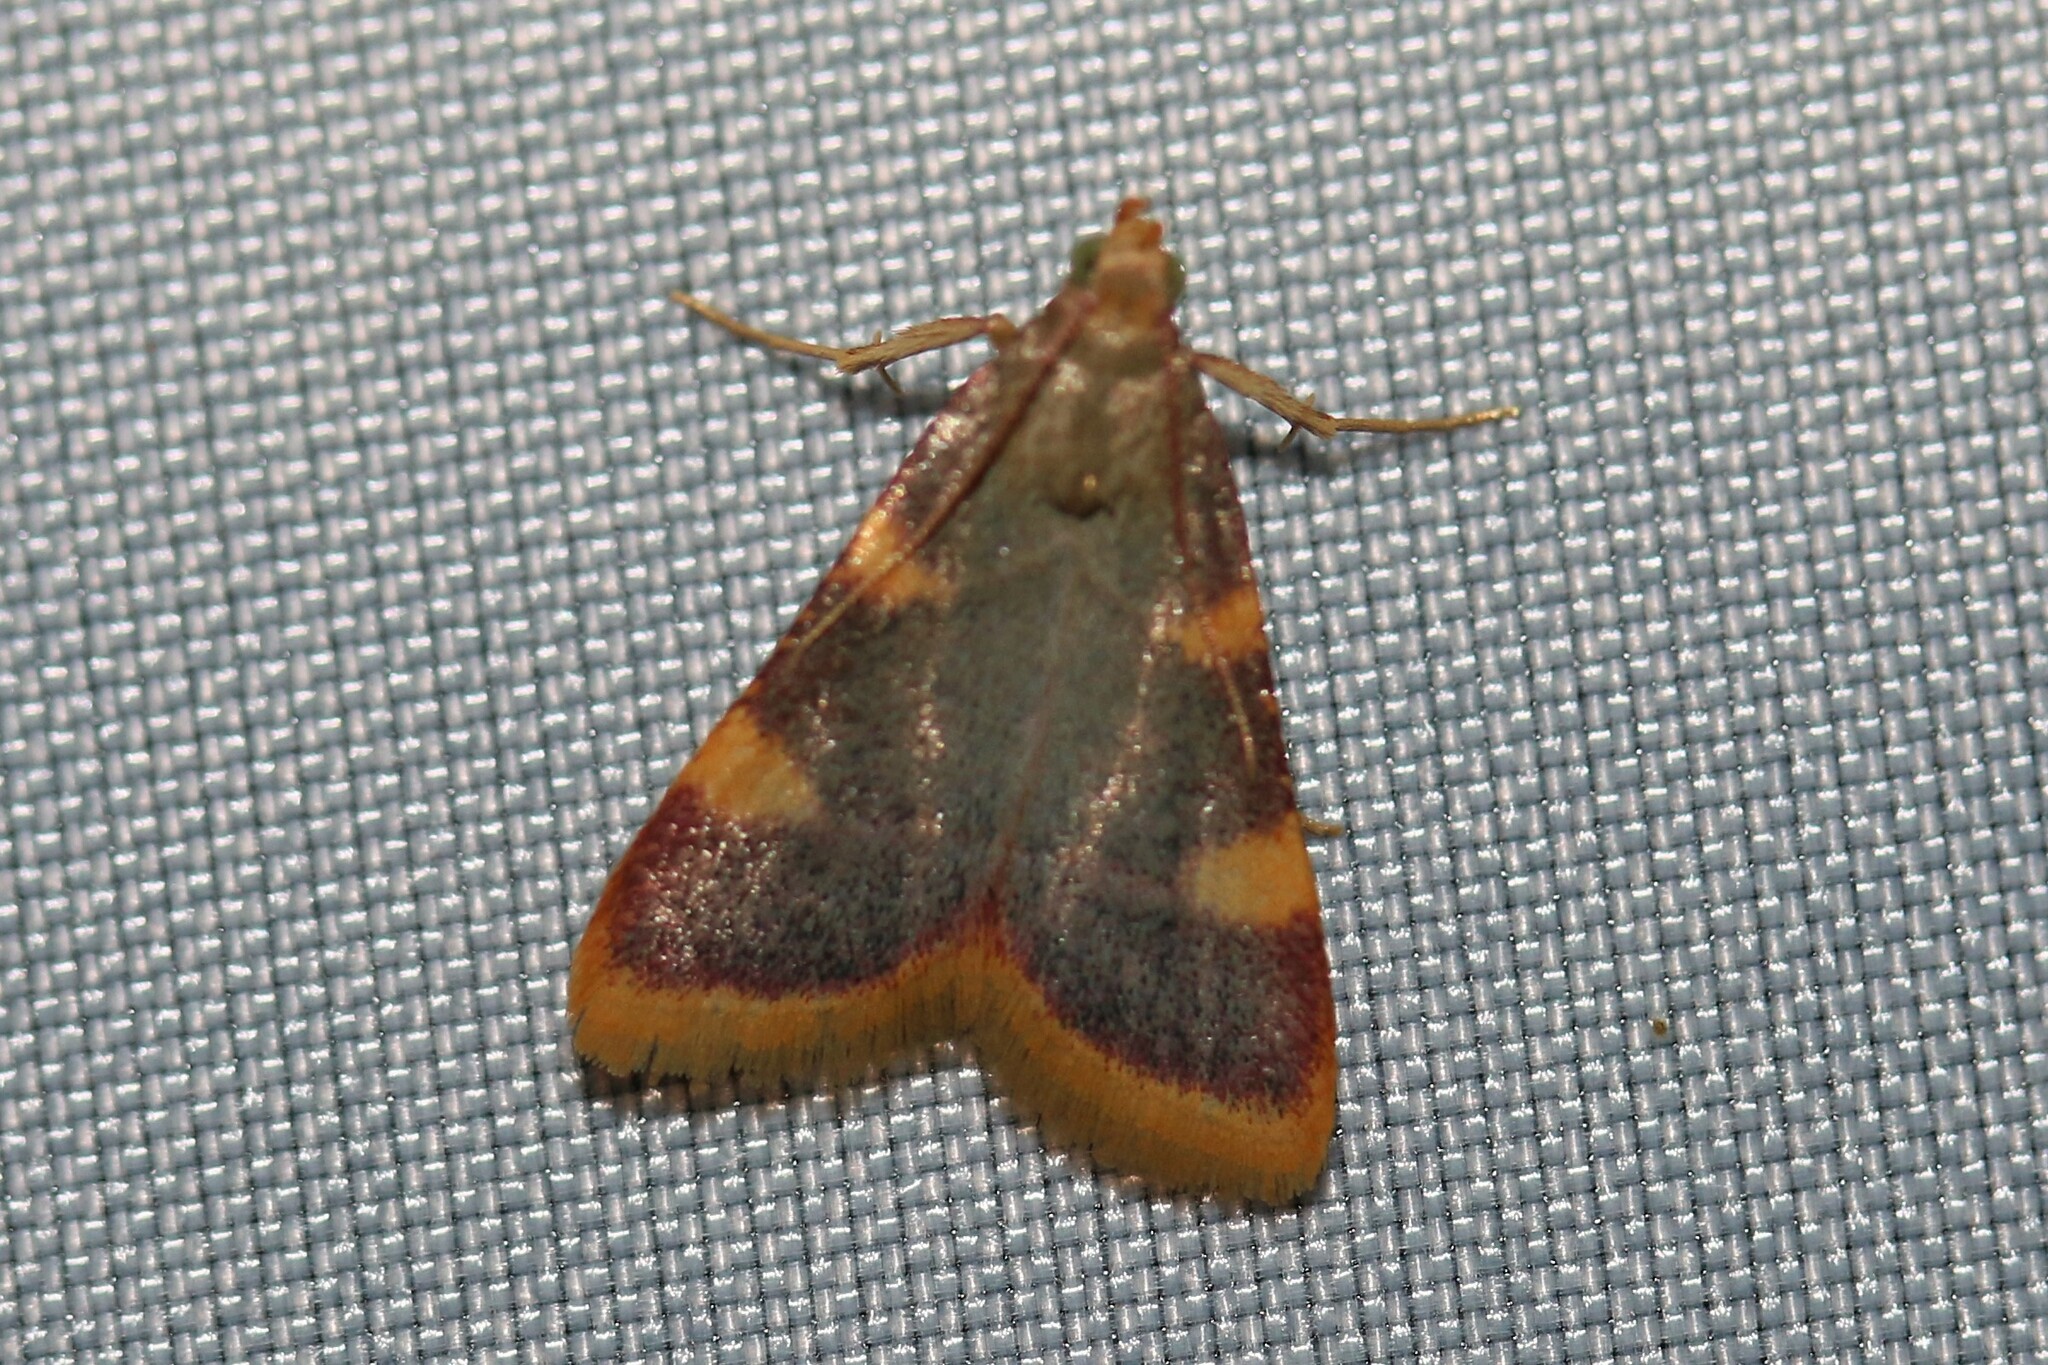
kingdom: Animalia
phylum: Arthropoda
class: Insecta
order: Lepidoptera
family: Pyralidae
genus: Hypsopygia
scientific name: Hypsopygia costalis
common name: Gold triangle
